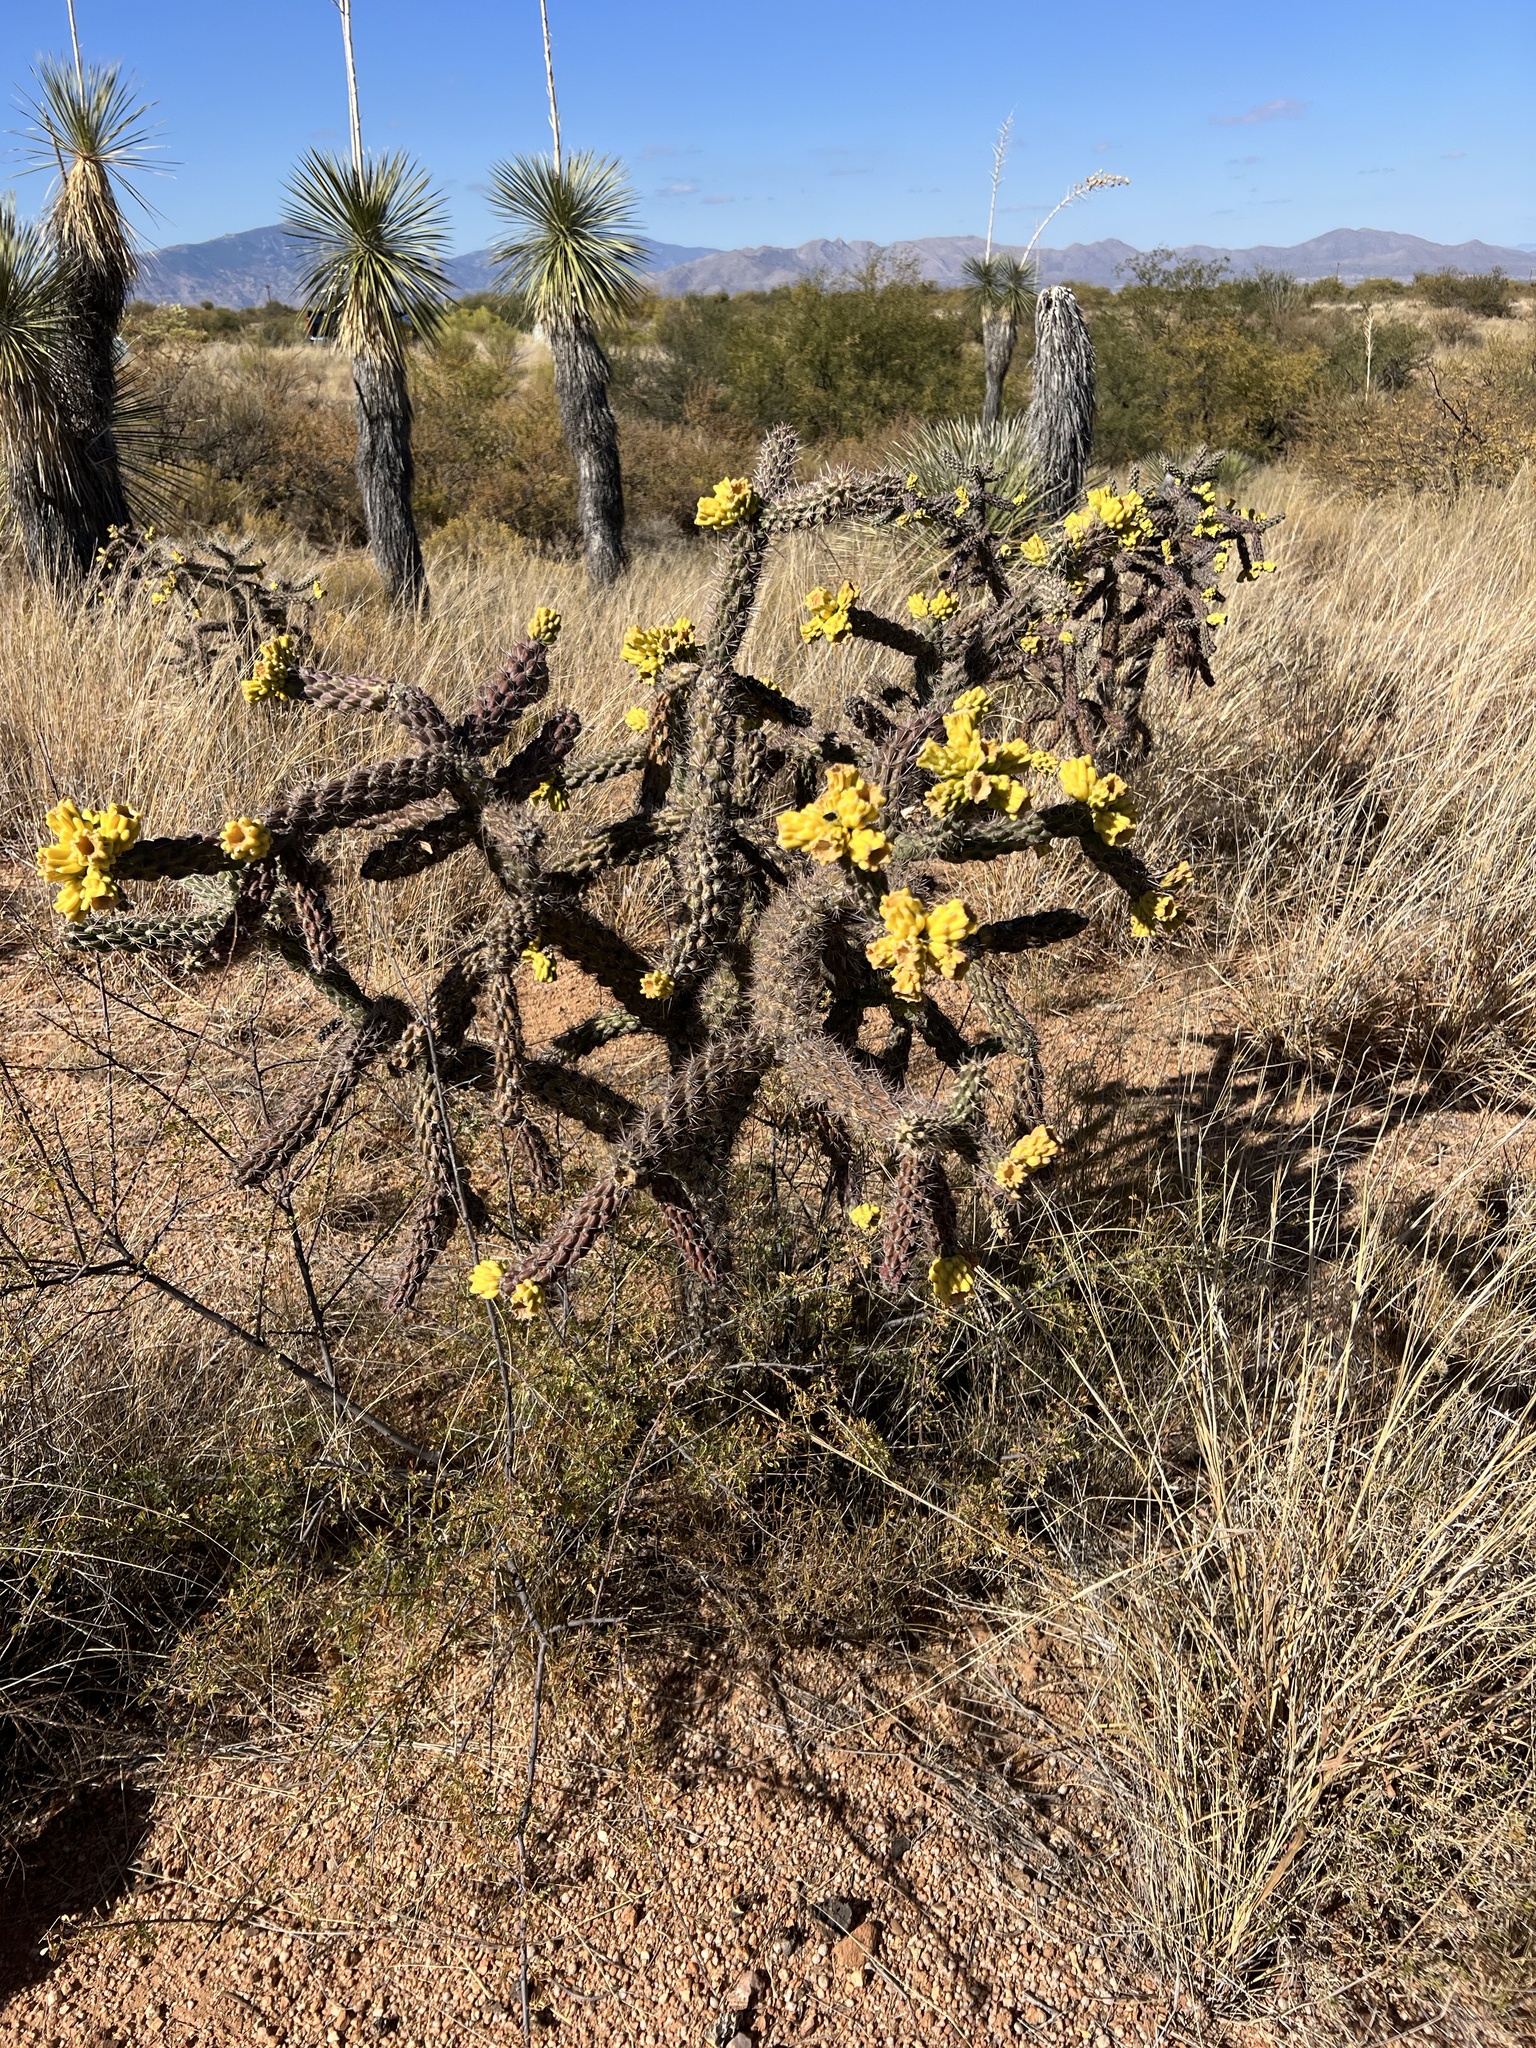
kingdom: Plantae
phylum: Tracheophyta
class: Magnoliopsida
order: Caryophyllales
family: Cactaceae
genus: Cylindropuntia
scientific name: Cylindropuntia imbricata
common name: Candelabrum cactus
